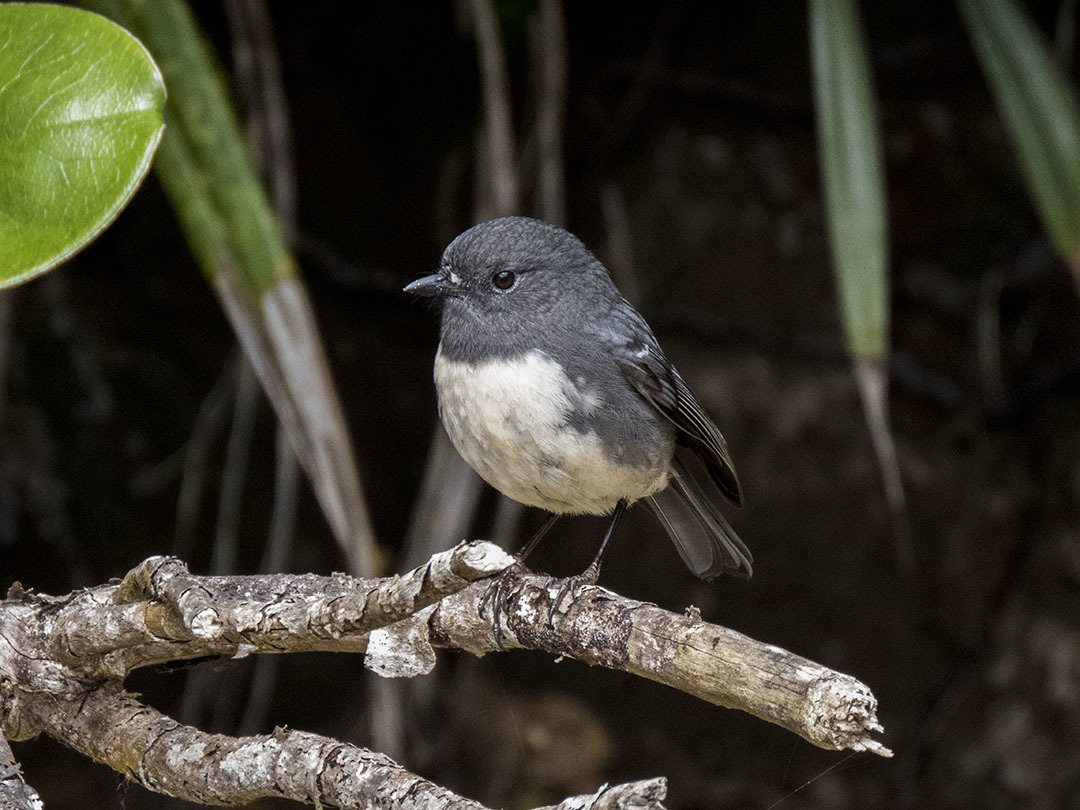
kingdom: Animalia
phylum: Chordata
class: Aves
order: Passeriformes
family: Petroicidae
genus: Petroica
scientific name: Petroica australis
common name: New zealand robin
